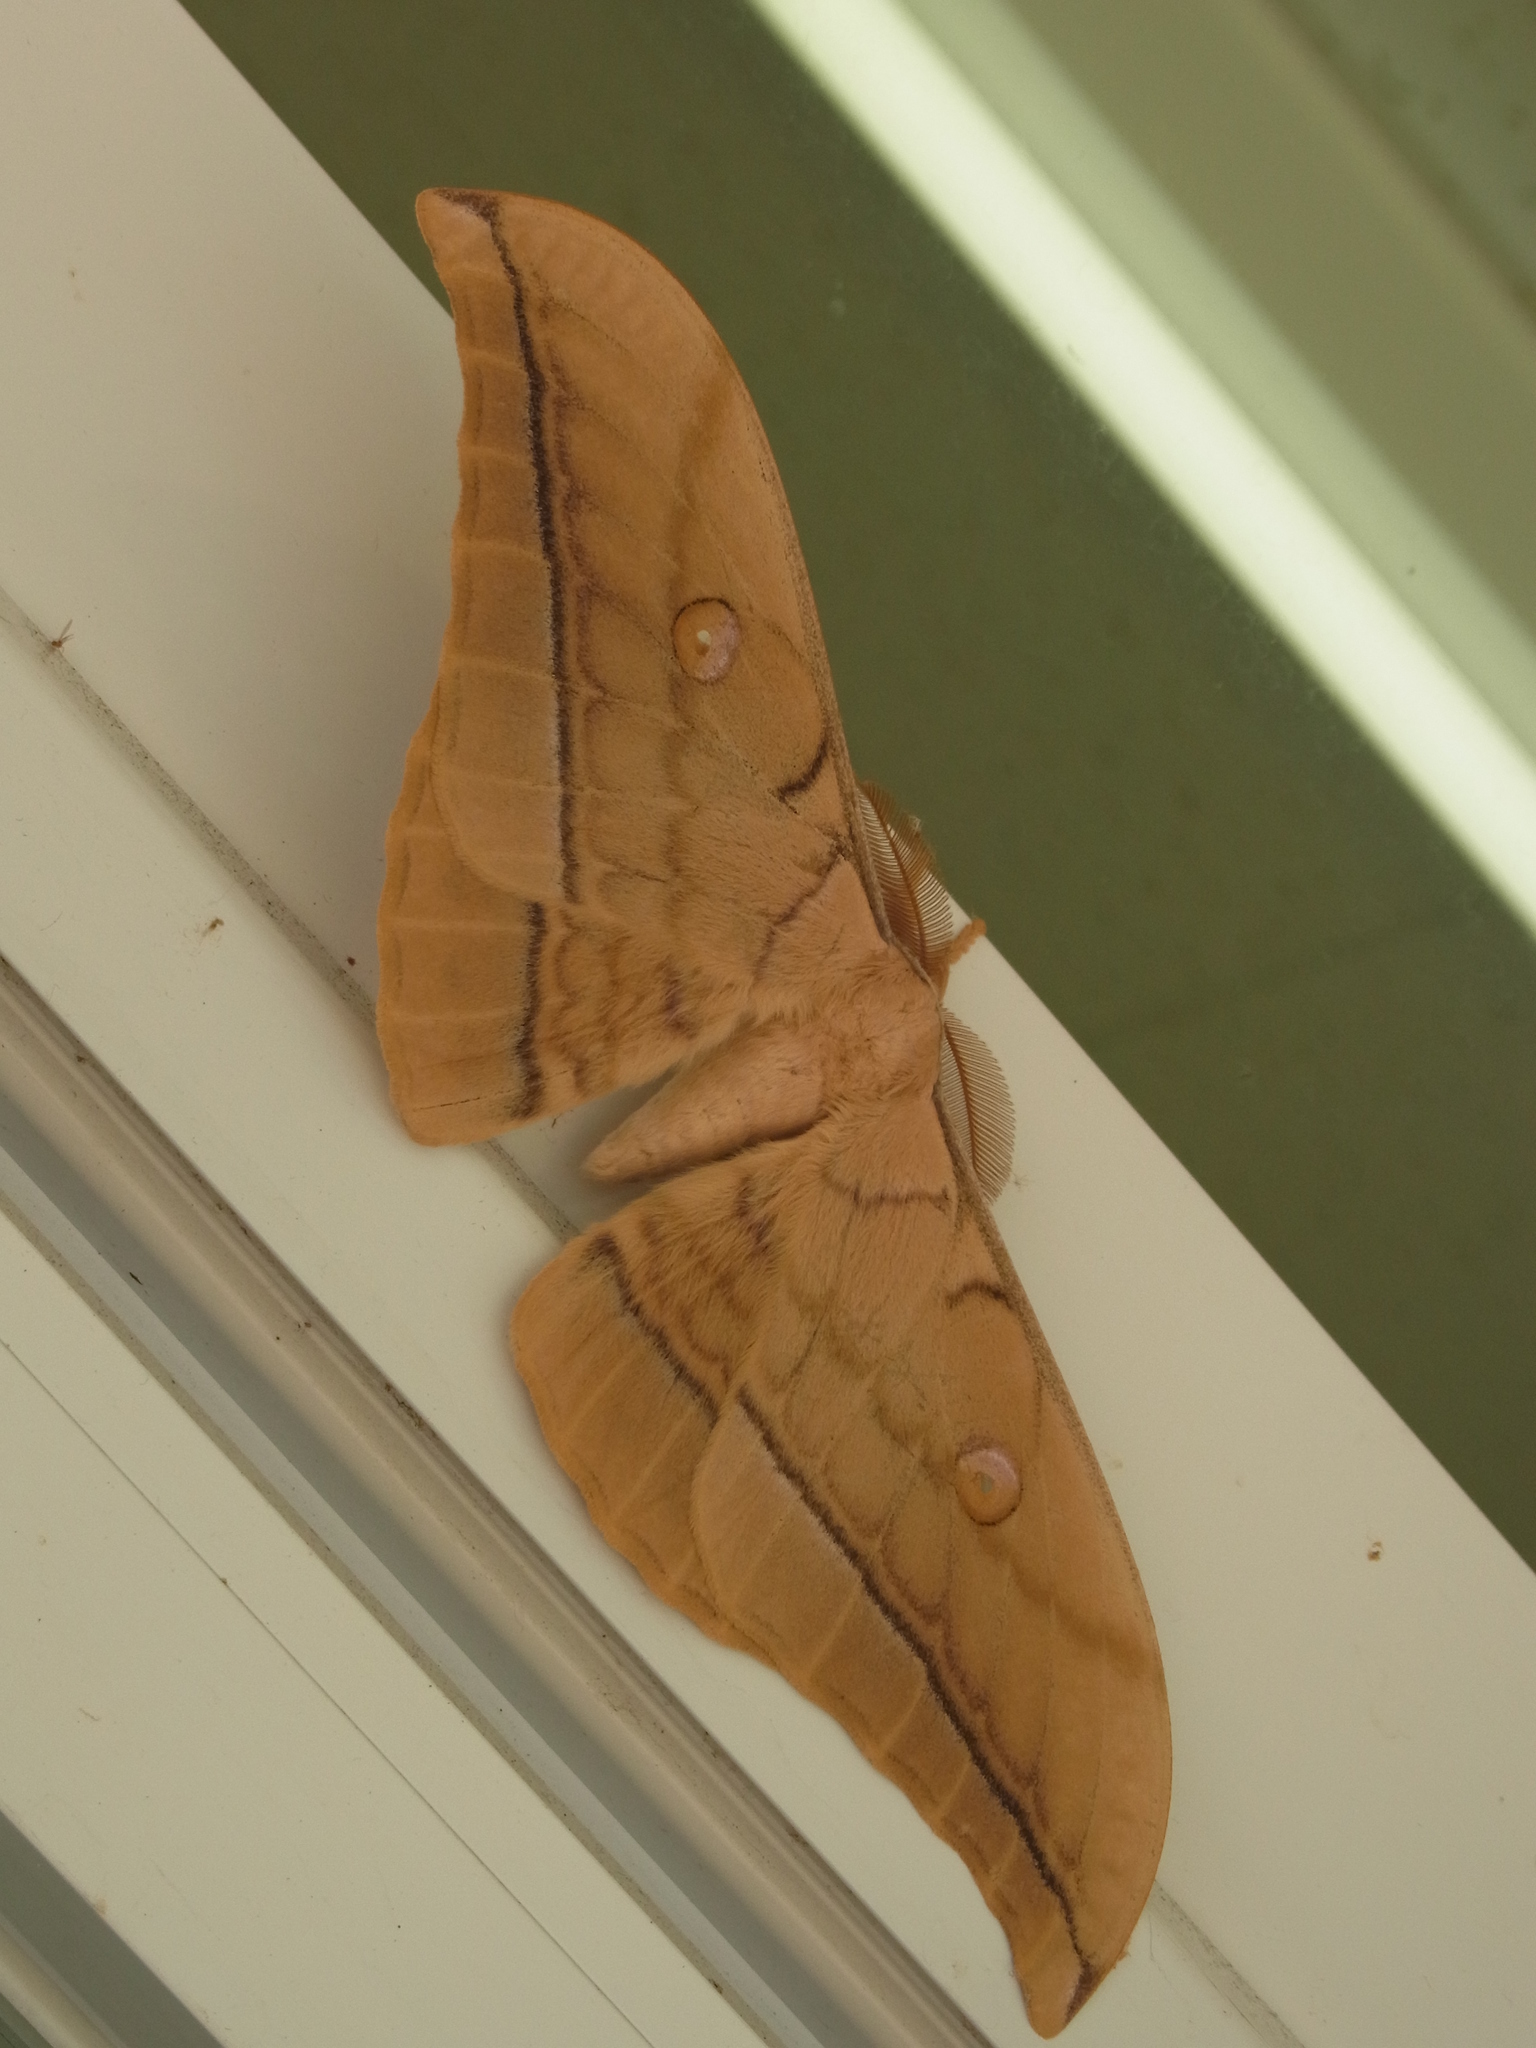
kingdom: Animalia
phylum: Arthropoda
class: Insecta
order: Lepidoptera
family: Saturniidae
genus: Antheraea
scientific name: Antheraea yamamai
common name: Japanese oak silk moth
